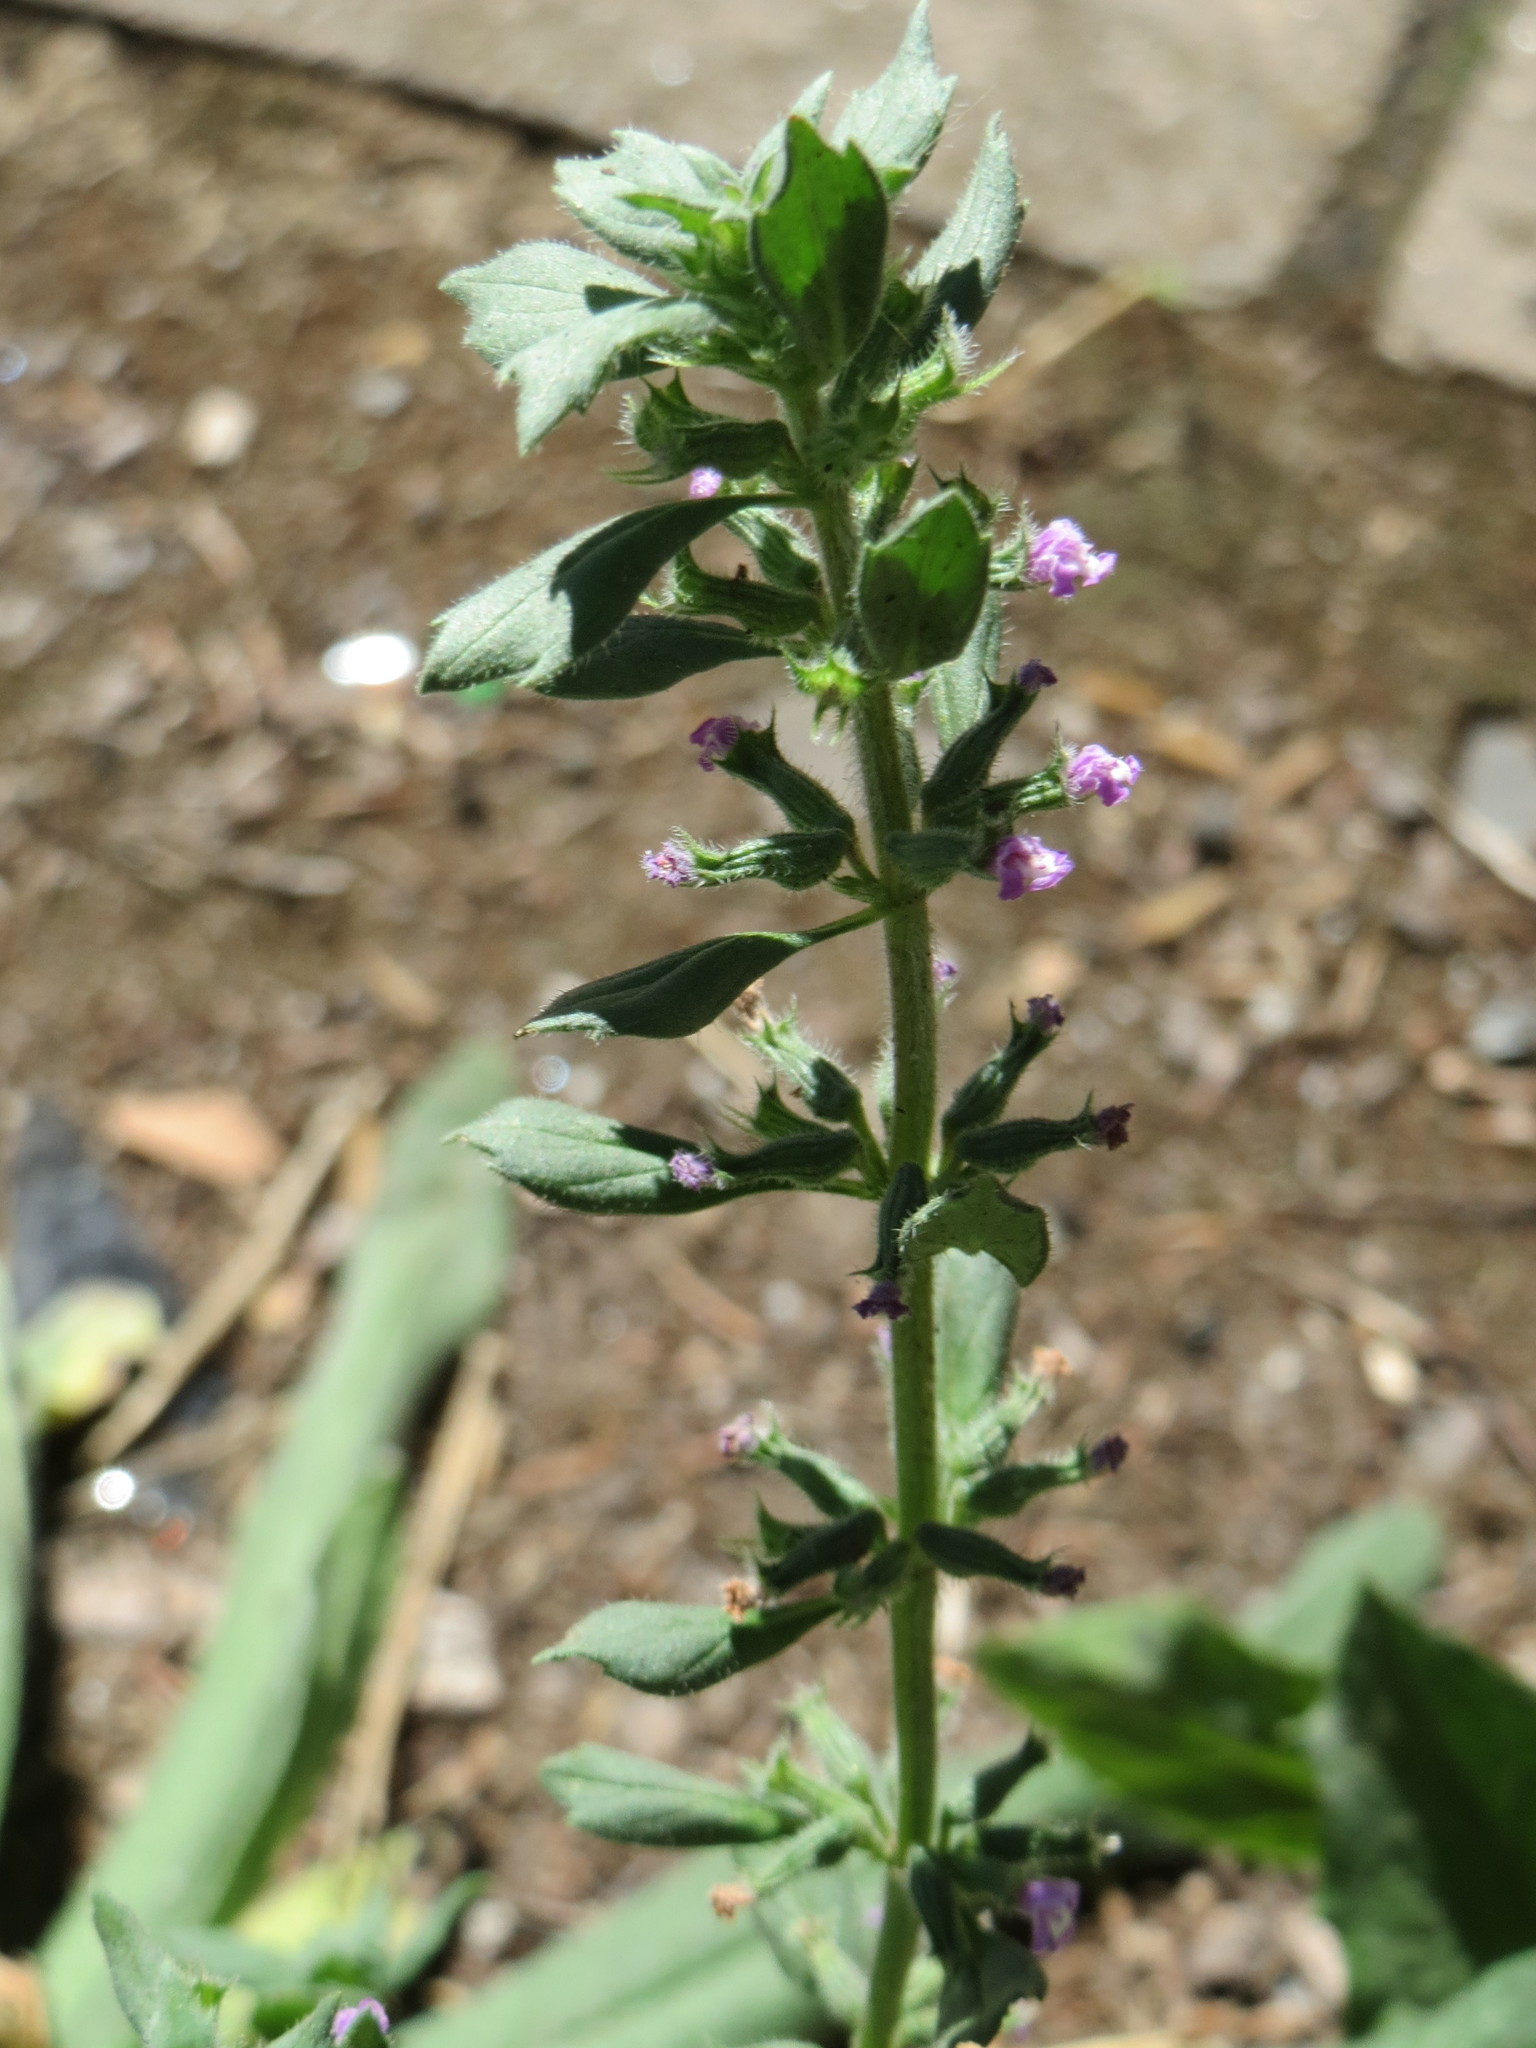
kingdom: Plantae
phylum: Tracheophyta
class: Magnoliopsida
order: Lamiales
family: Lamiaceae
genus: Clinopodium
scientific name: Clinopodium acinos
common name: Basil thyme
